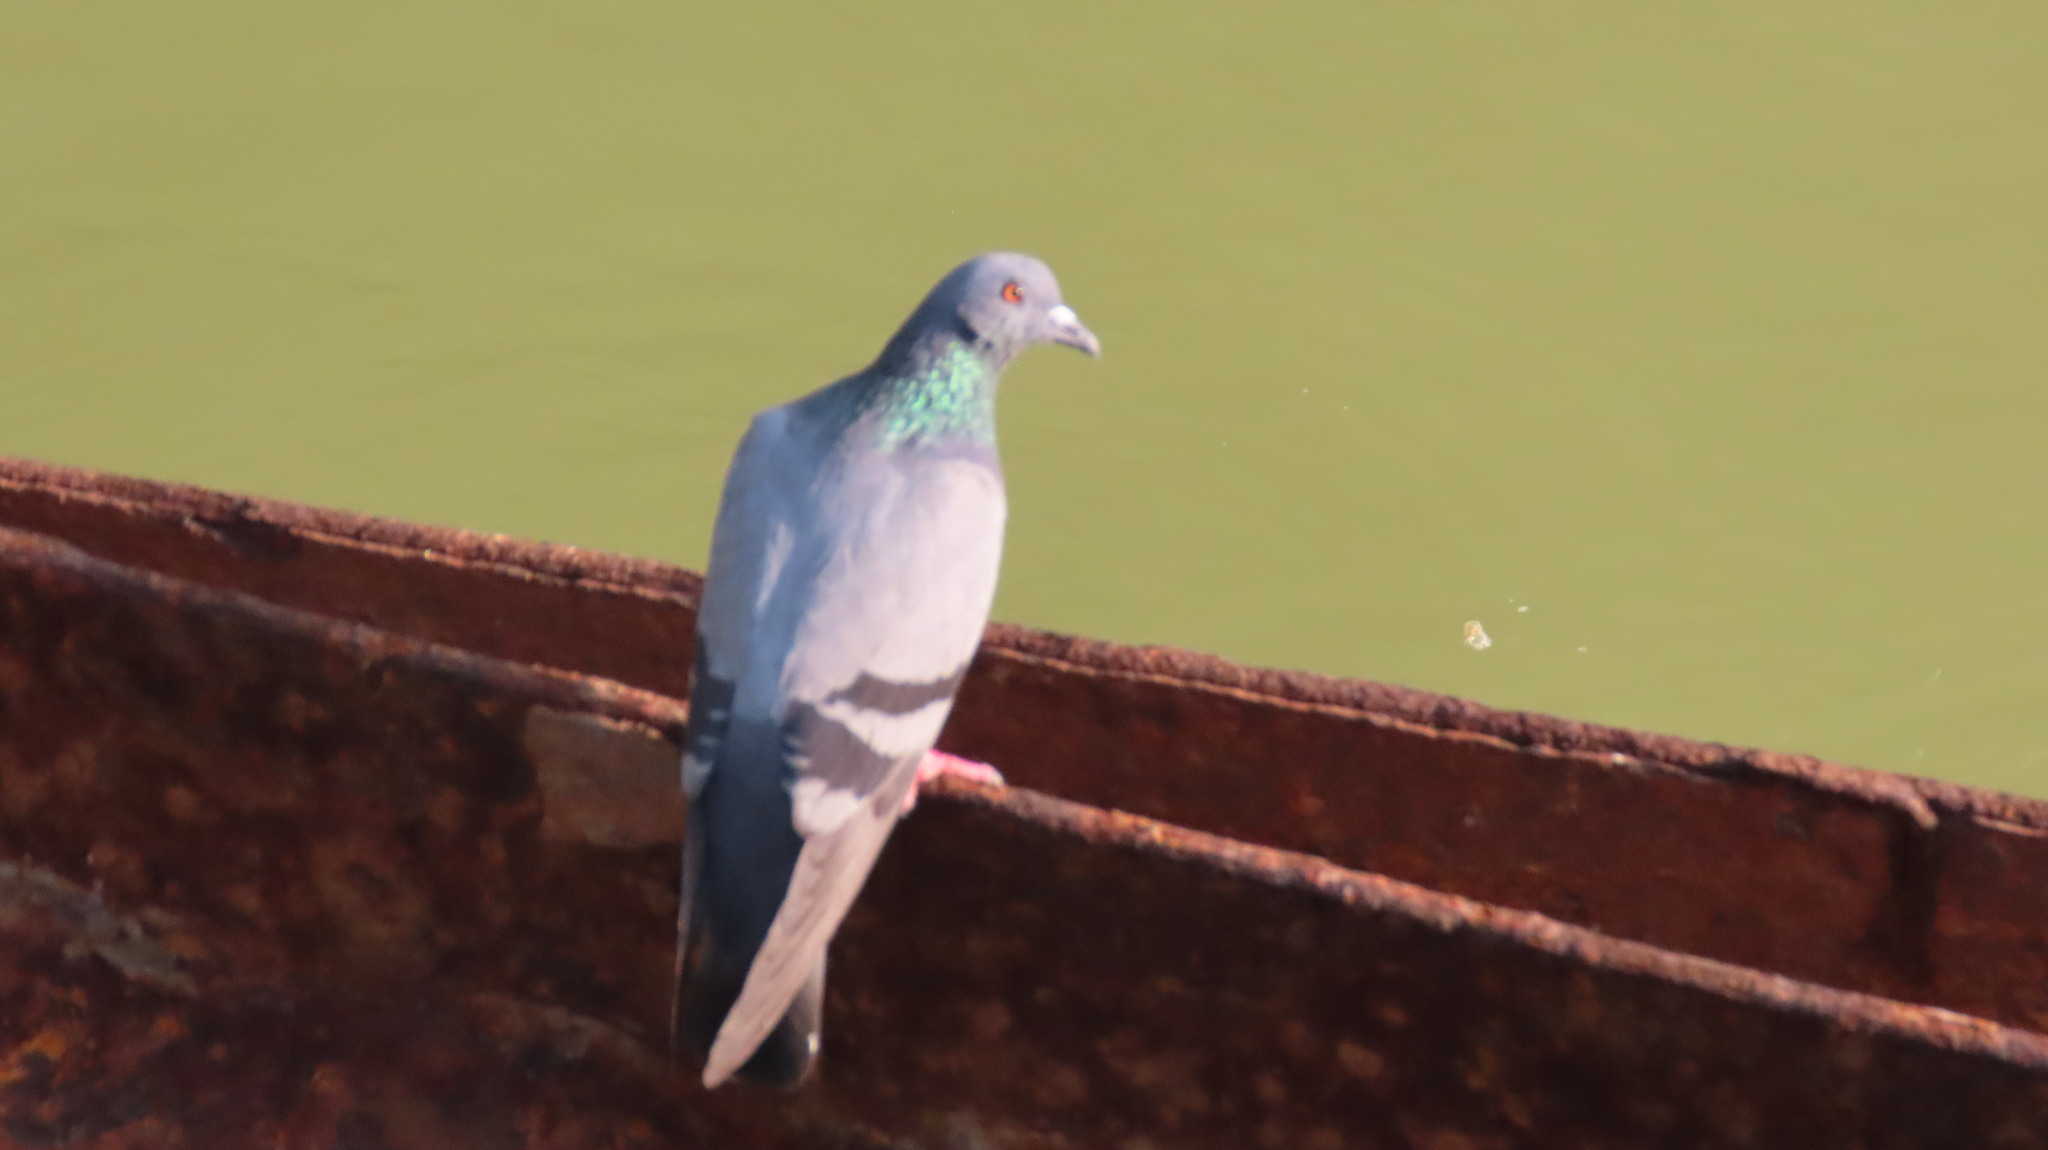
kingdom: Animalia
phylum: Chordata
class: Aves
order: Columbiformes
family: Columbidae
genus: Columba
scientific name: Columba livia
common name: Rock pigeon
